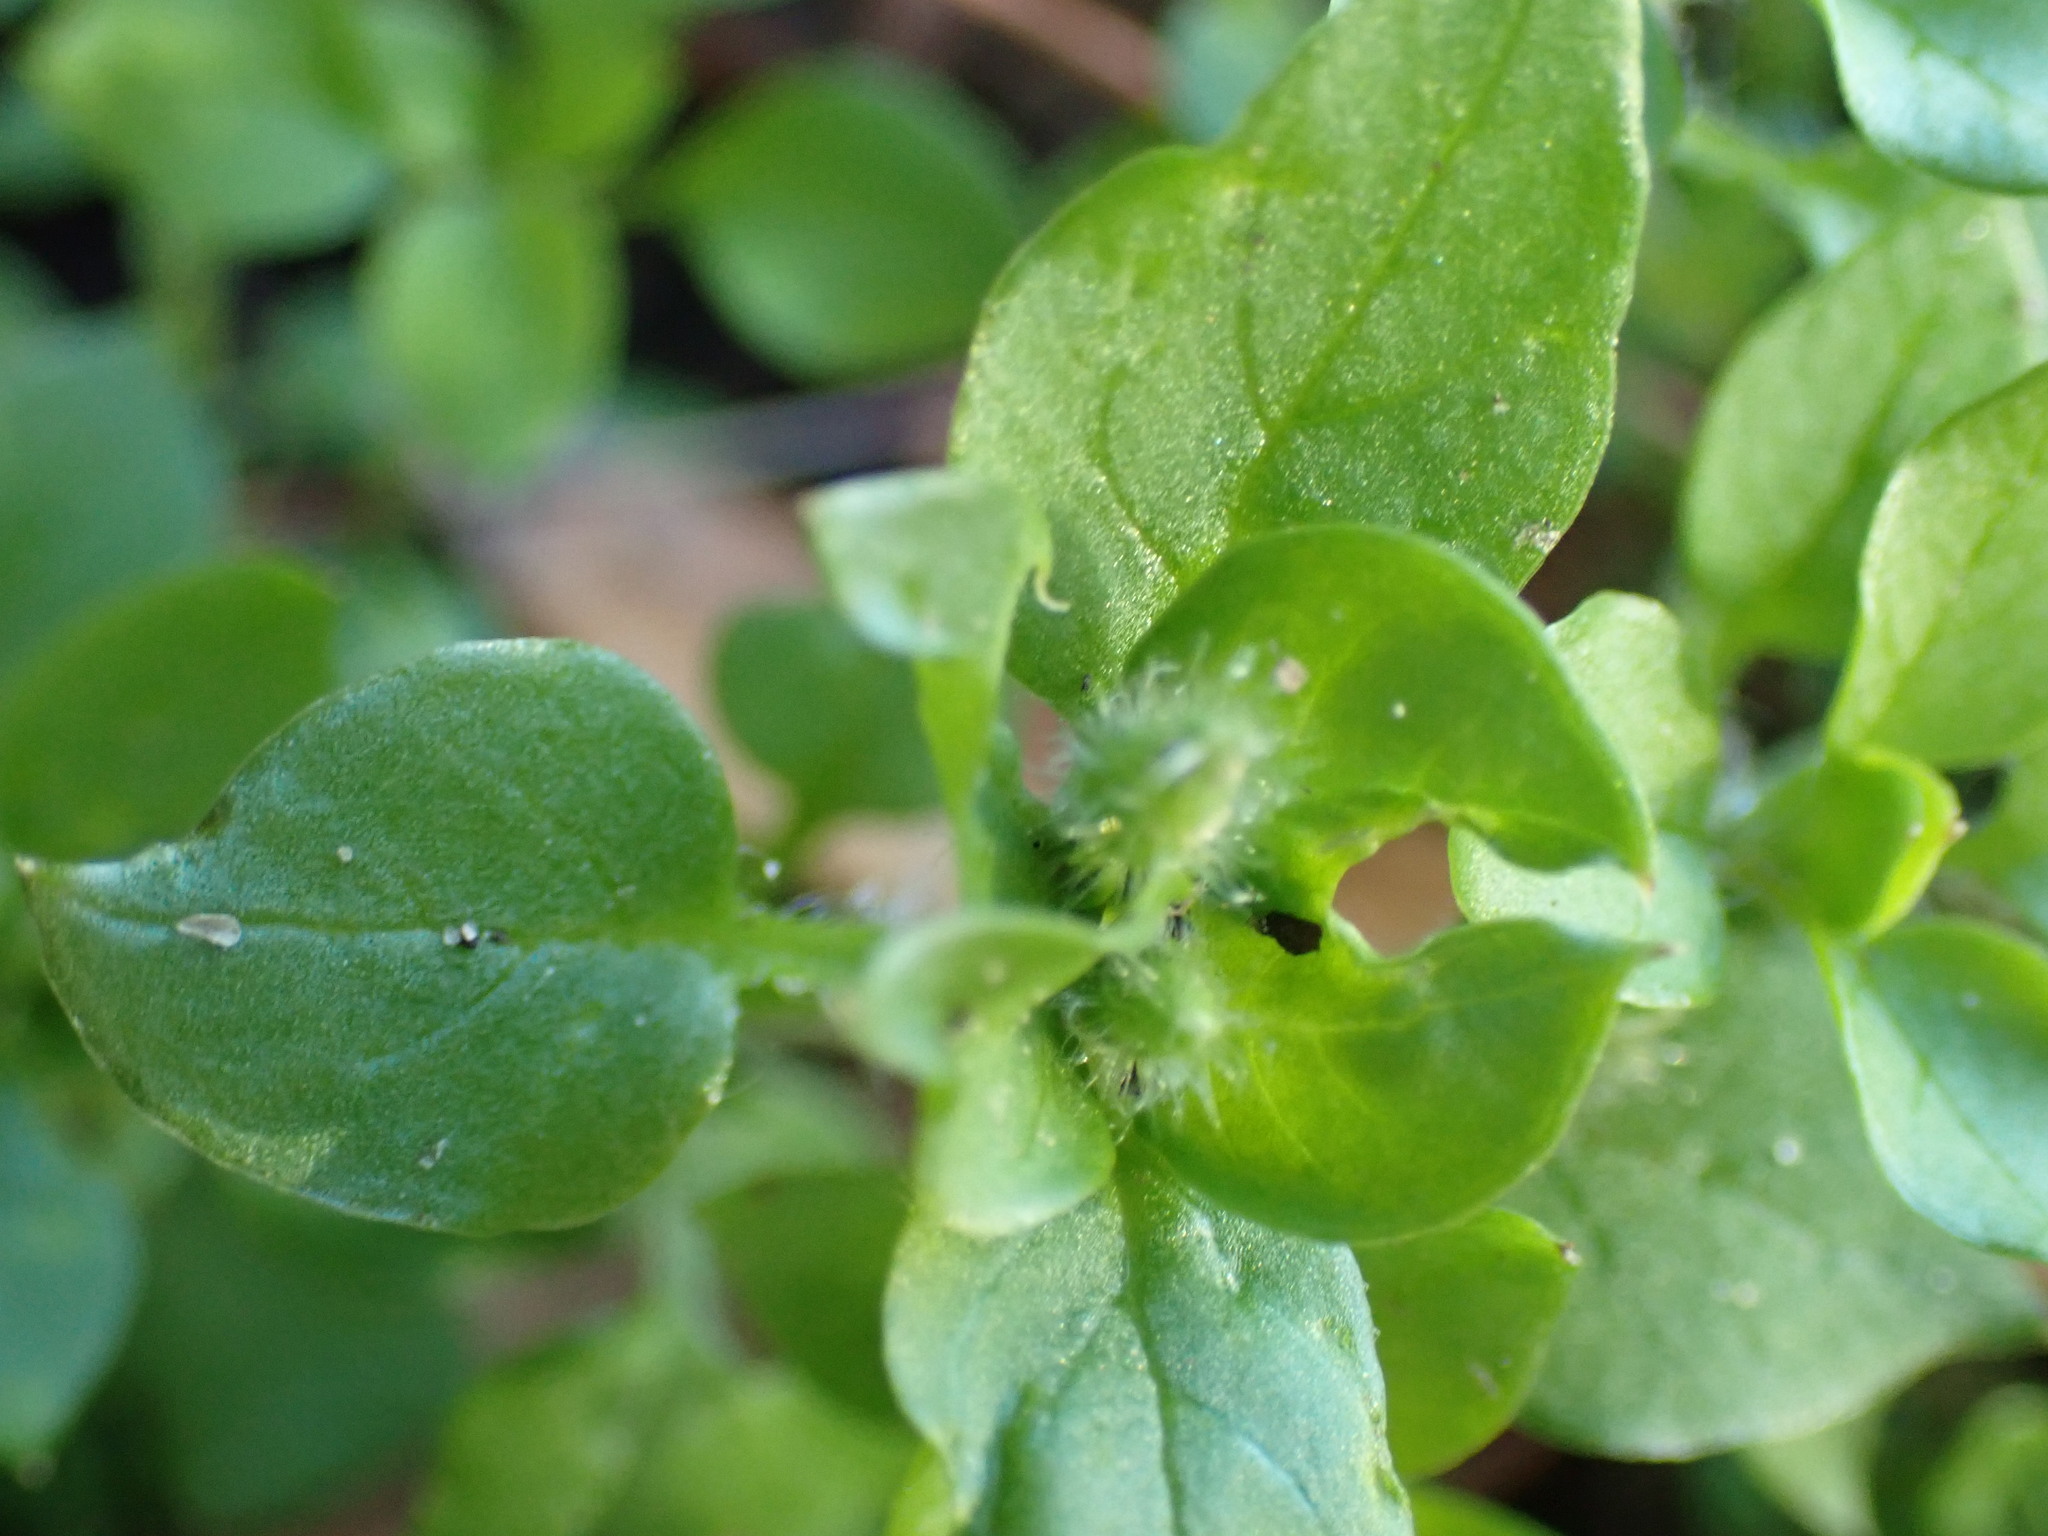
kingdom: Plantae
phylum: Tracheophyta
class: Magnoliopsida
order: Caryophyllales
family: Caryophyllaceae
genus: Stellaria
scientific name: Stellaria media
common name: Common chickweed
